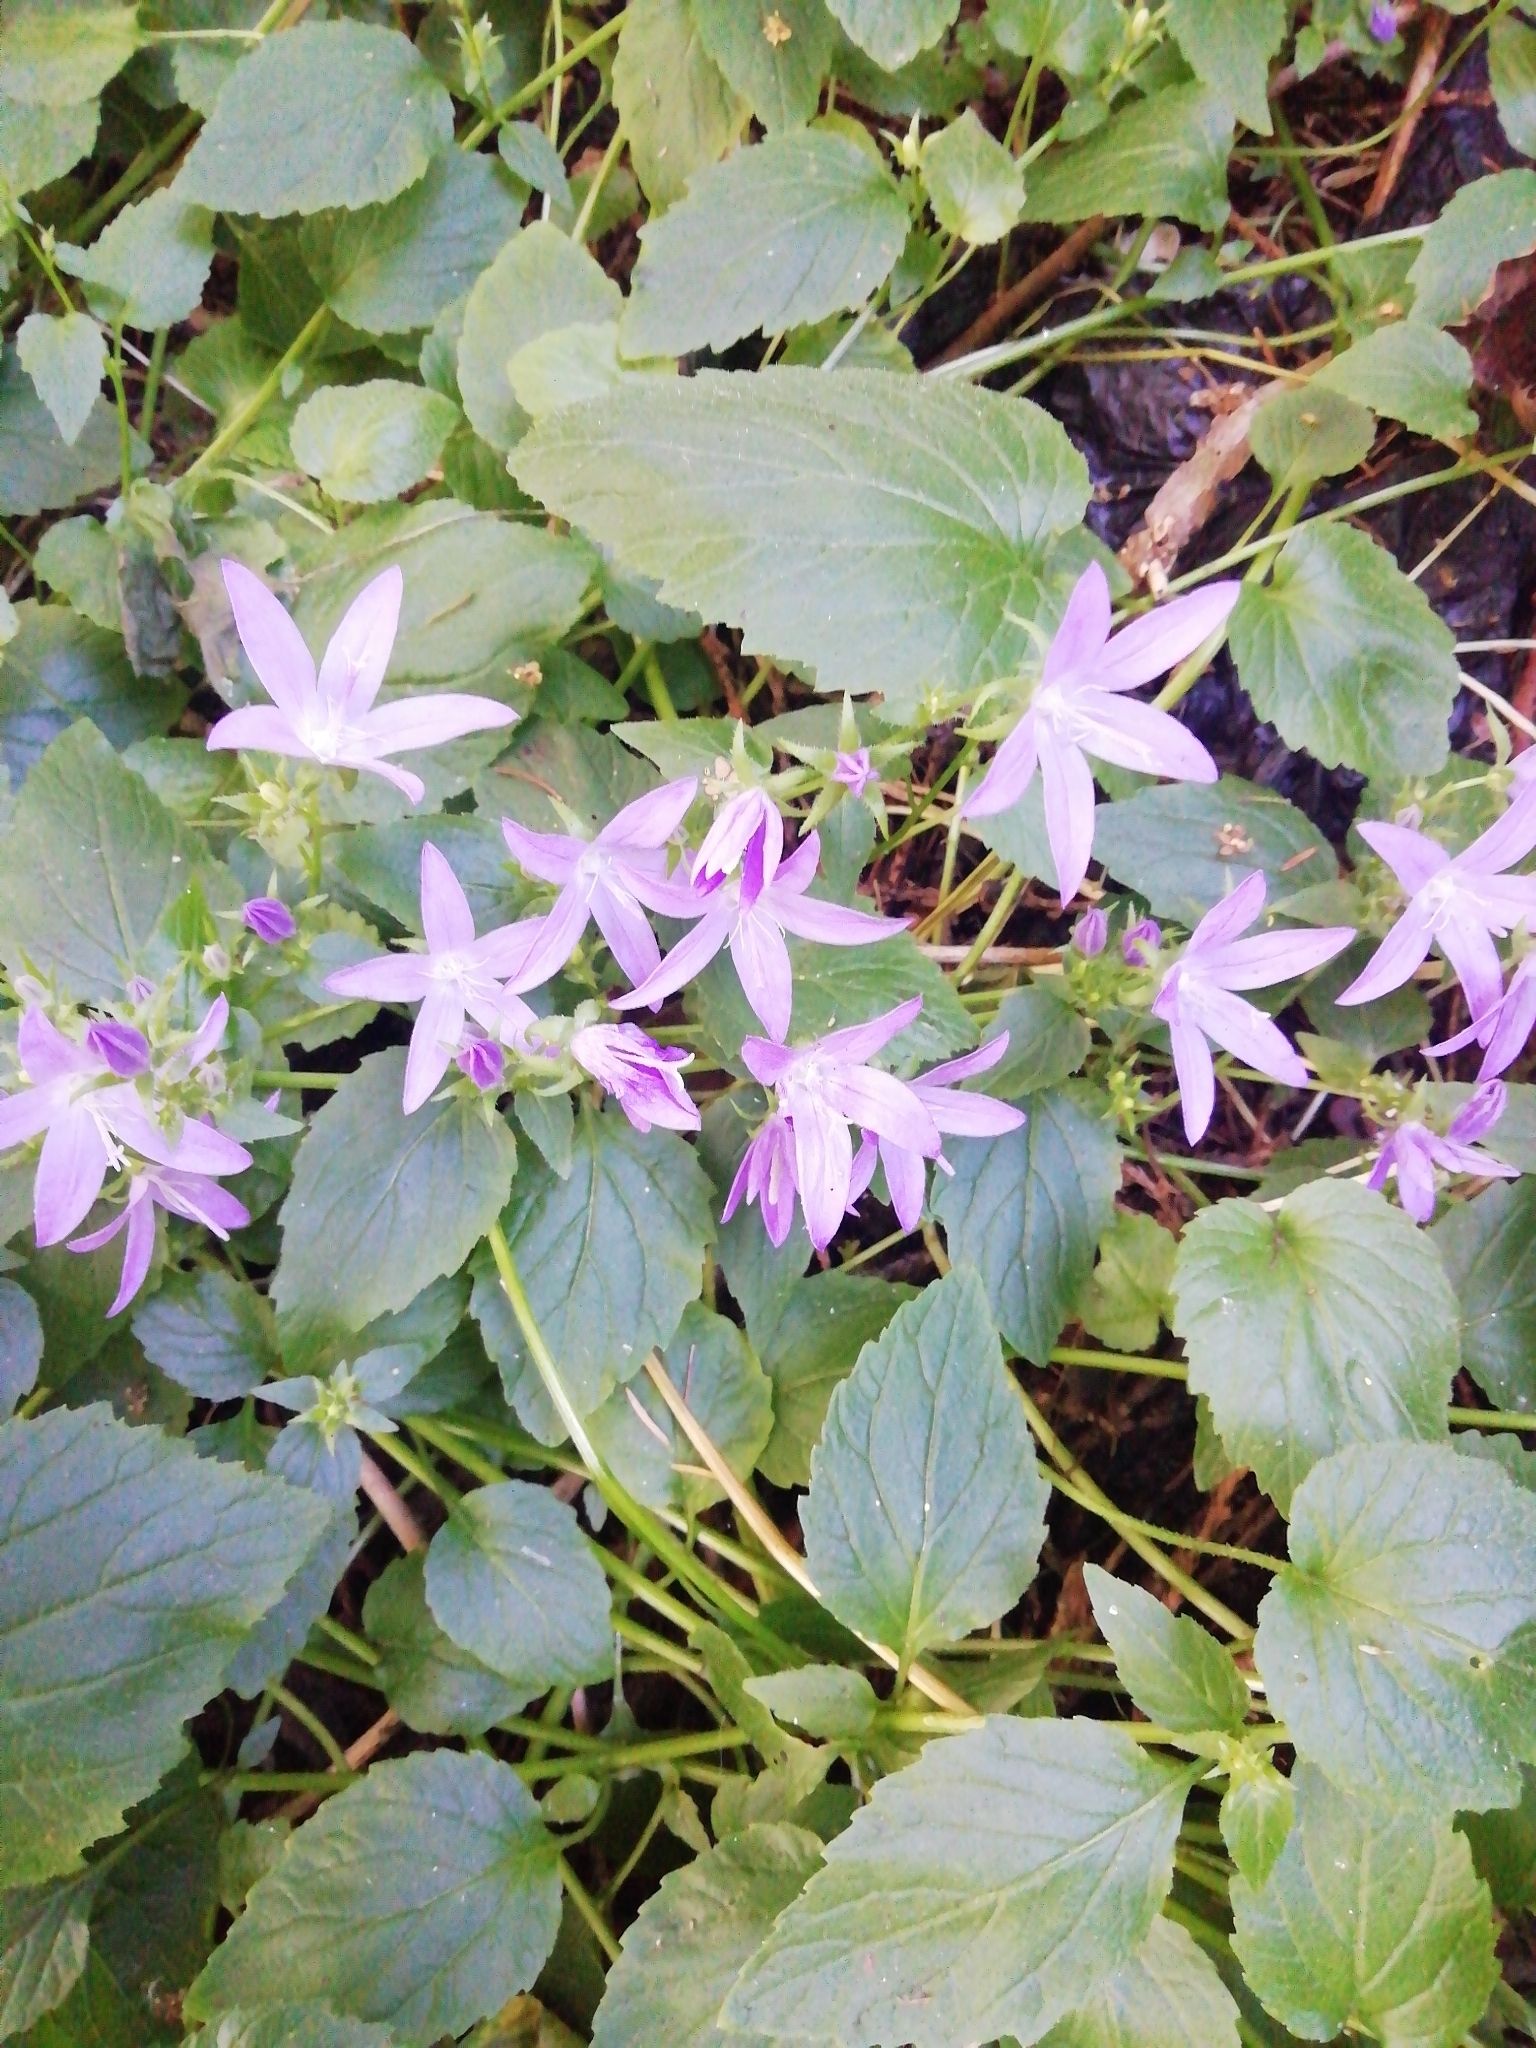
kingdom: Plantae
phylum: Tracheophyta
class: Magnoliopsida
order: Asterales
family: Campanulaceae
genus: Campanula
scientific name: Campanula poscharskyana
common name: Trailing bellflower
